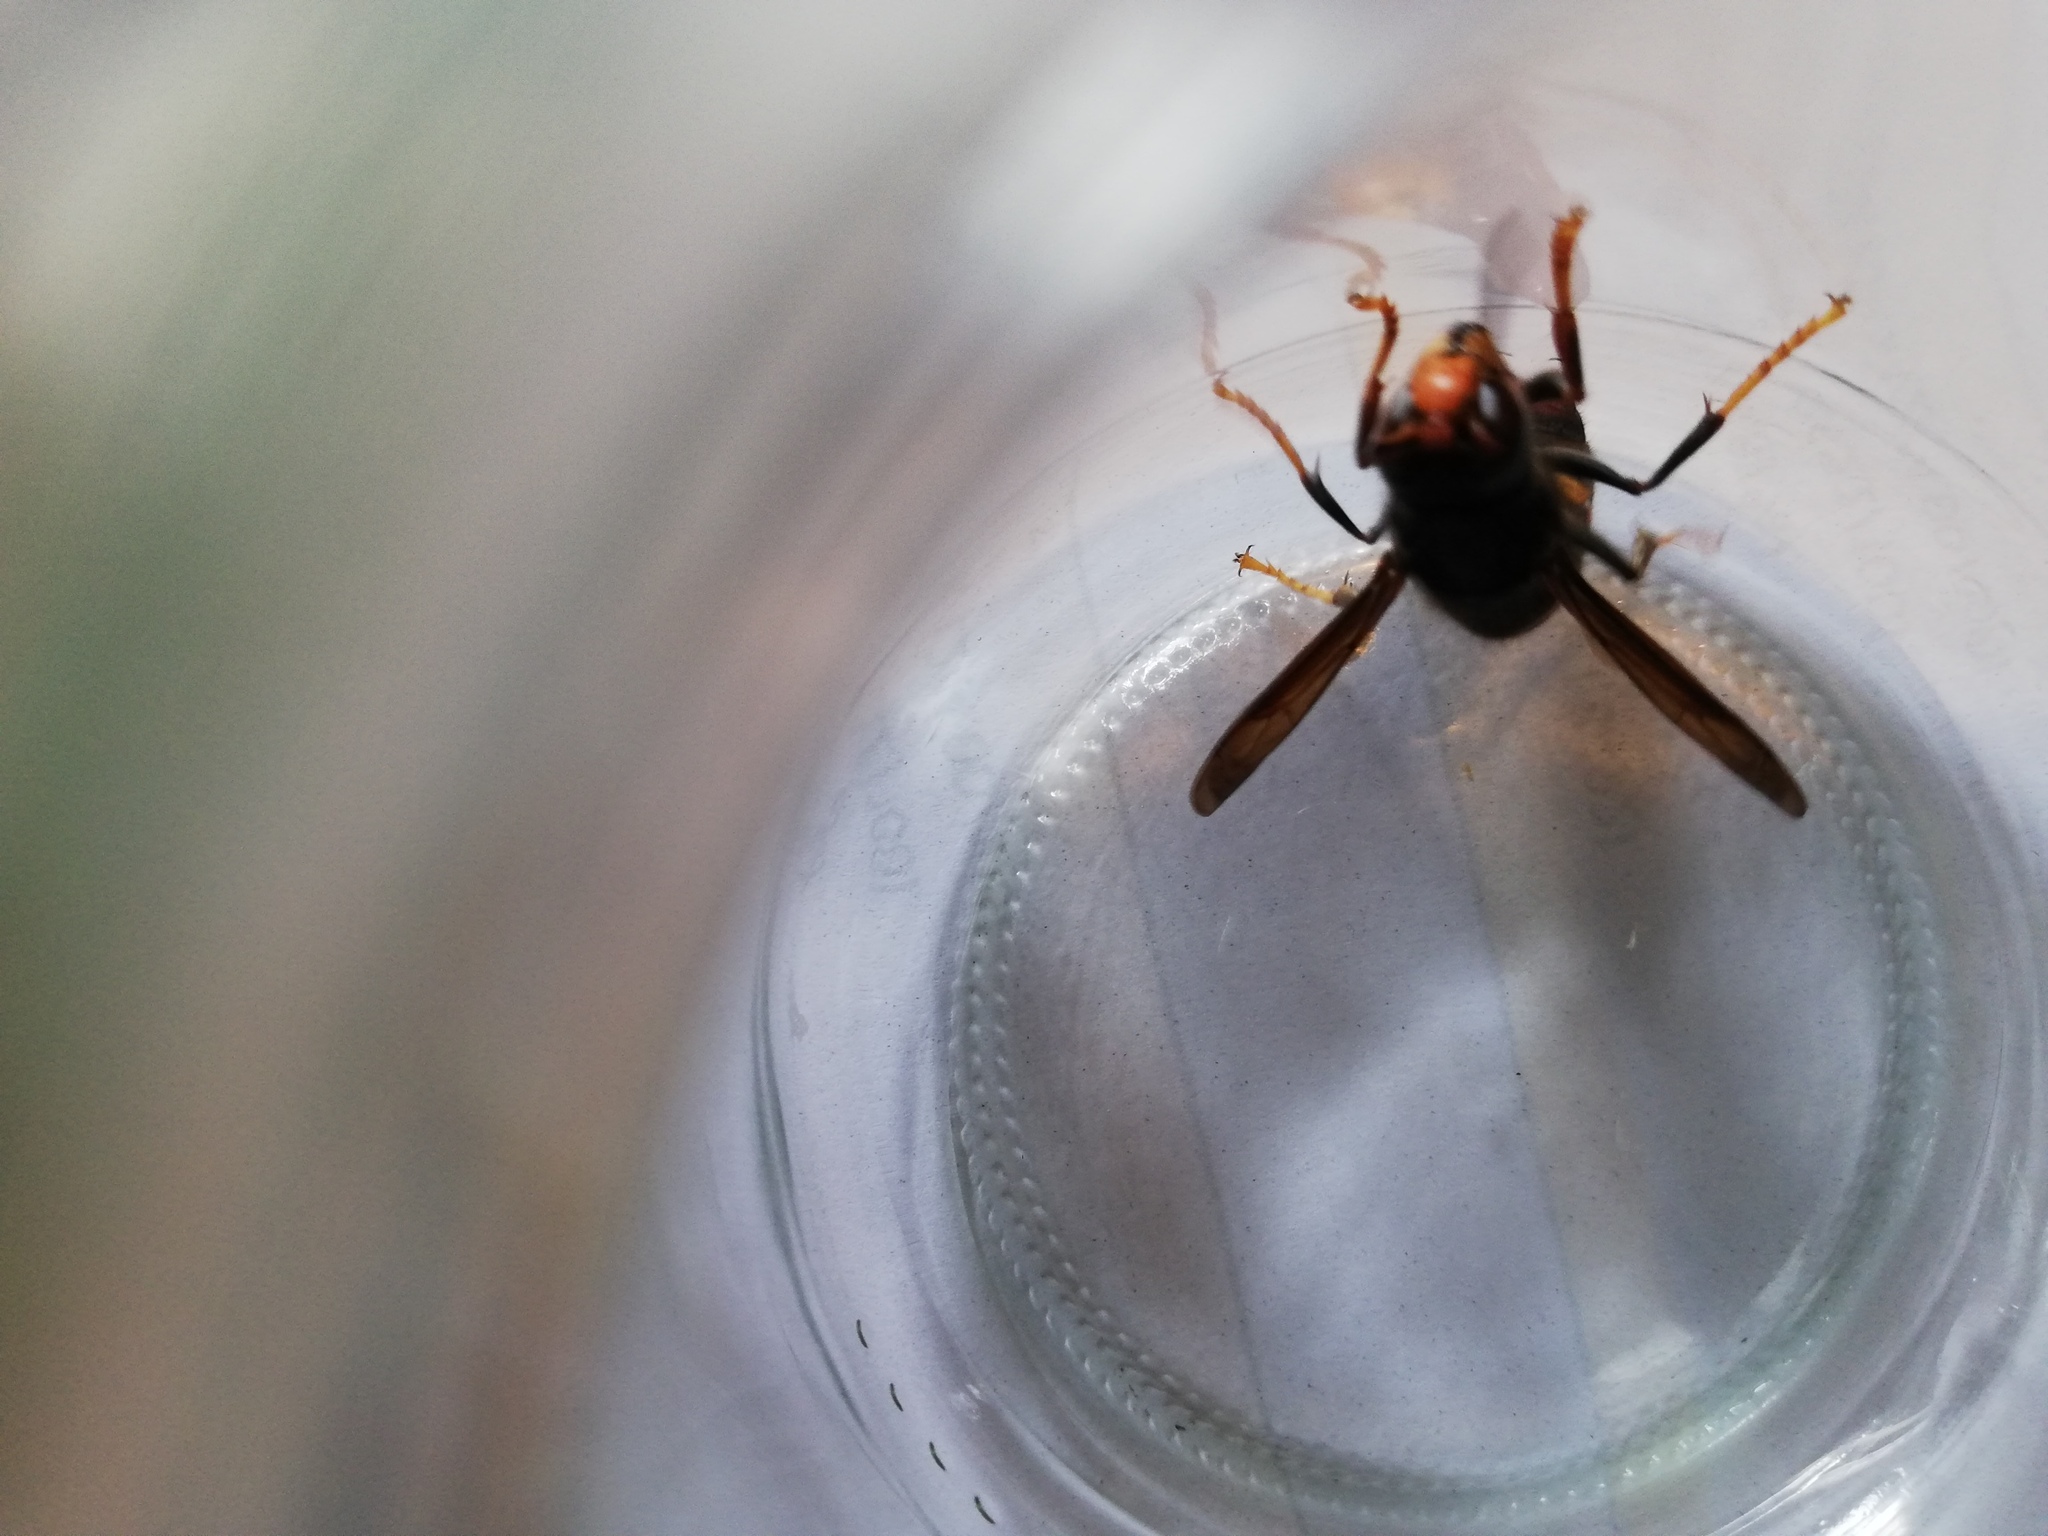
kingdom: Animalia
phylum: Arthropoda
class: Insecta
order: Hymenoptera
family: Vespidae
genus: Vespa
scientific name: Vespa velutina
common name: Asian hornet
